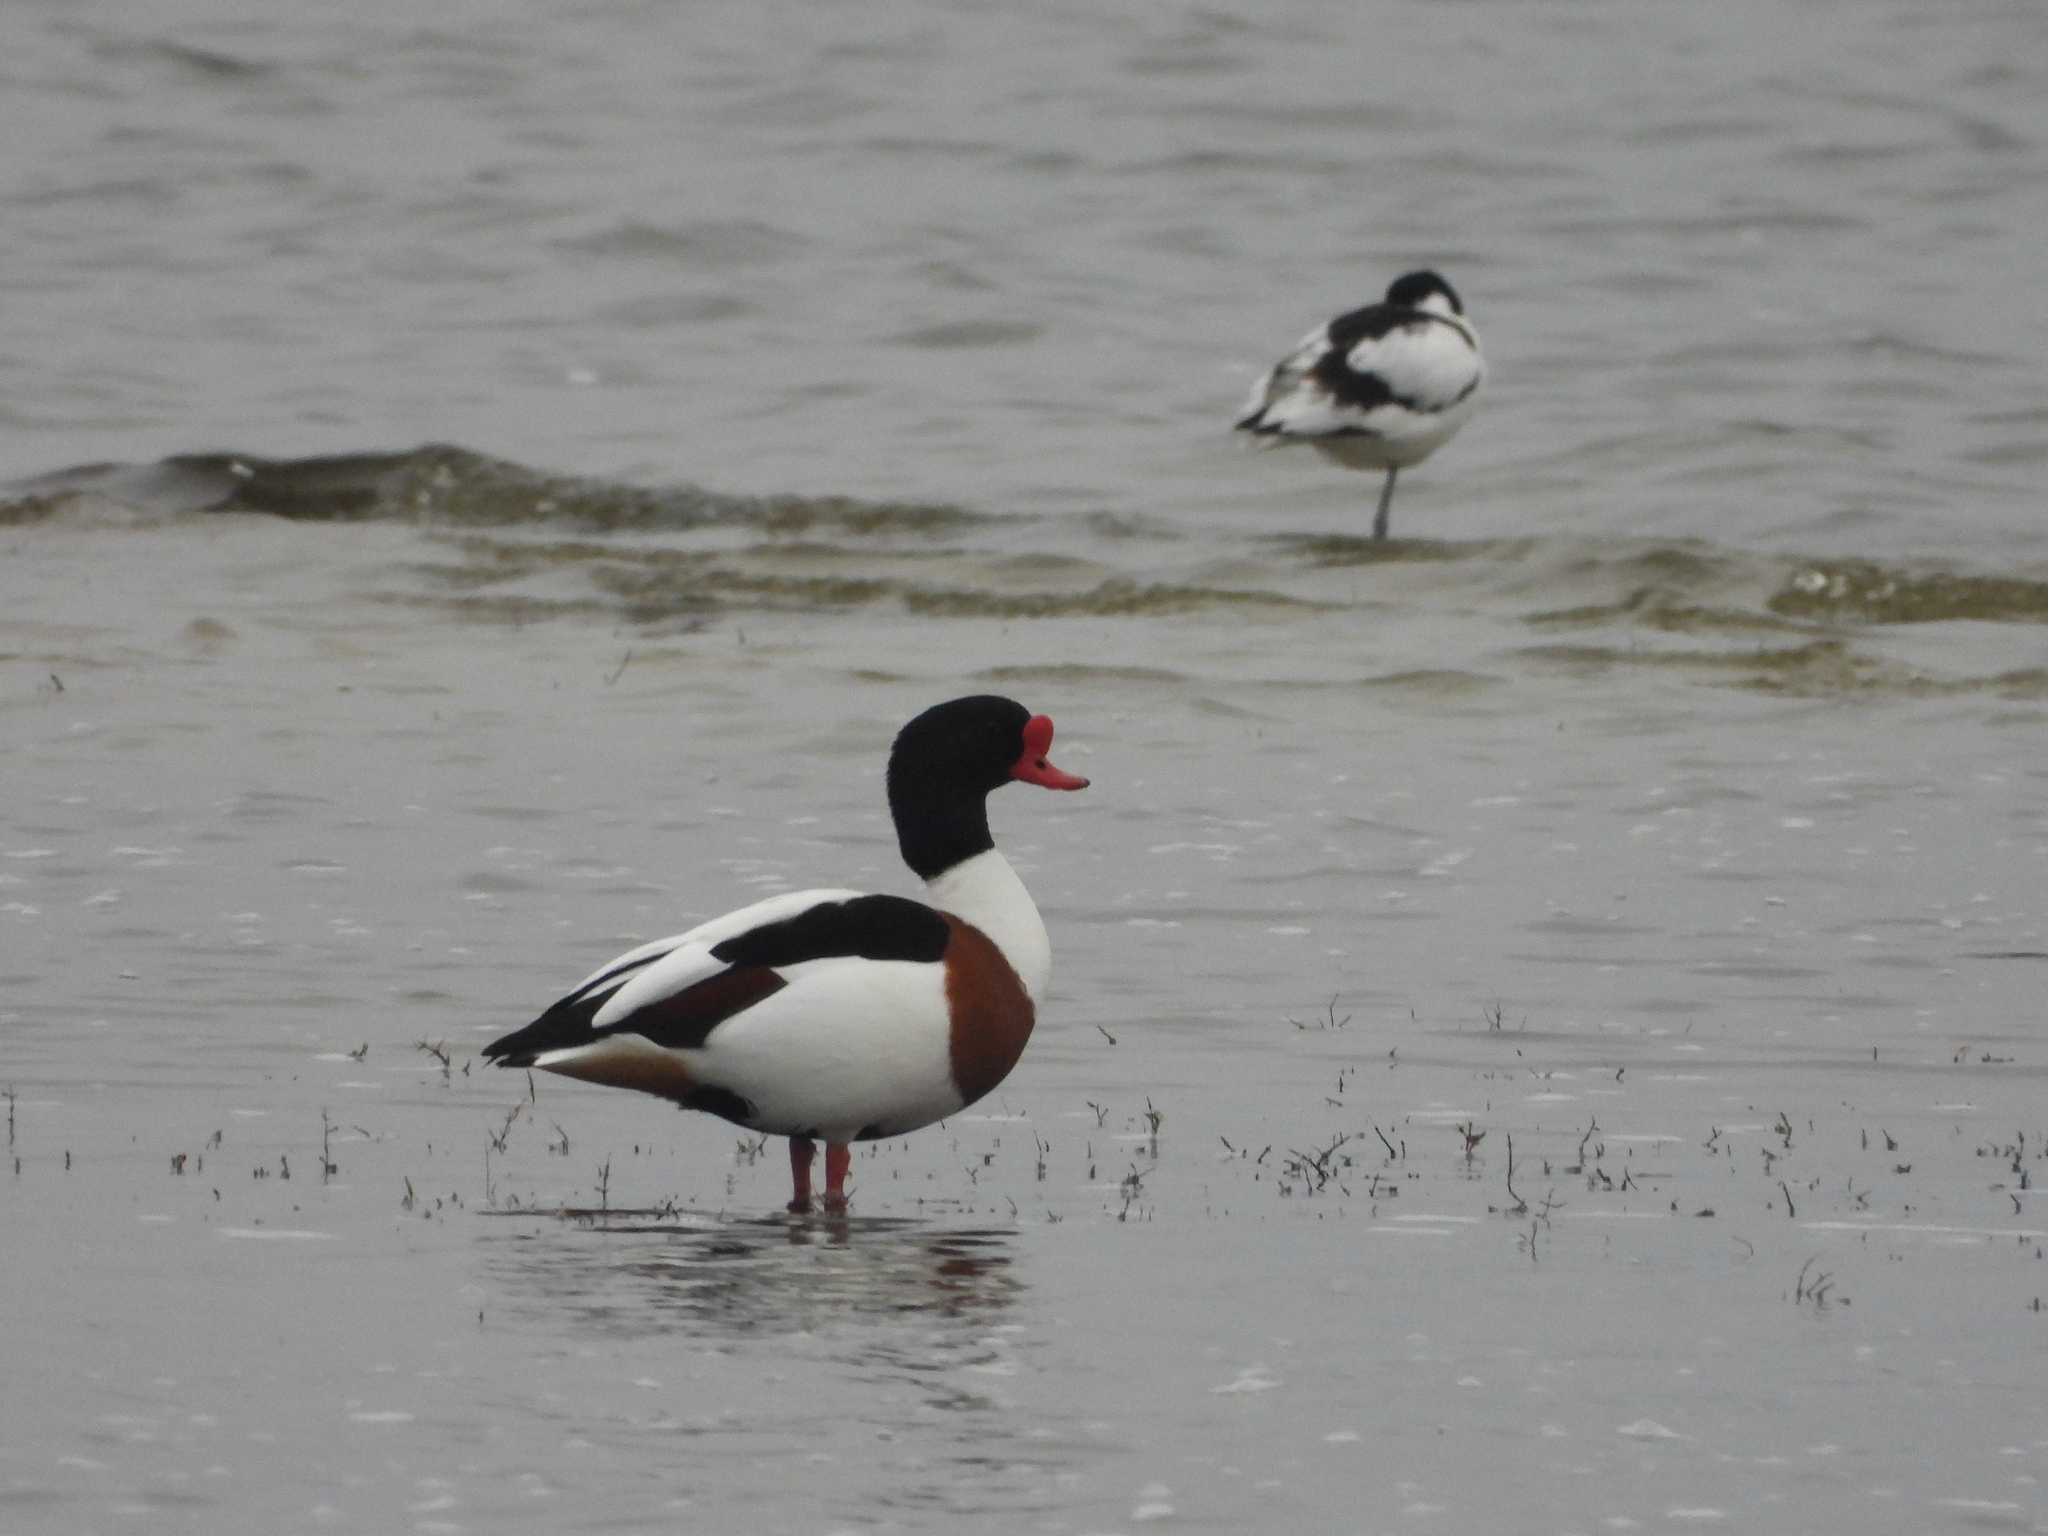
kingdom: Animalia
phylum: Chordata
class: Aves
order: Anseriformes
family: Anatidae
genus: Tadorna
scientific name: Tadorna tadorna
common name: Common shelduck
